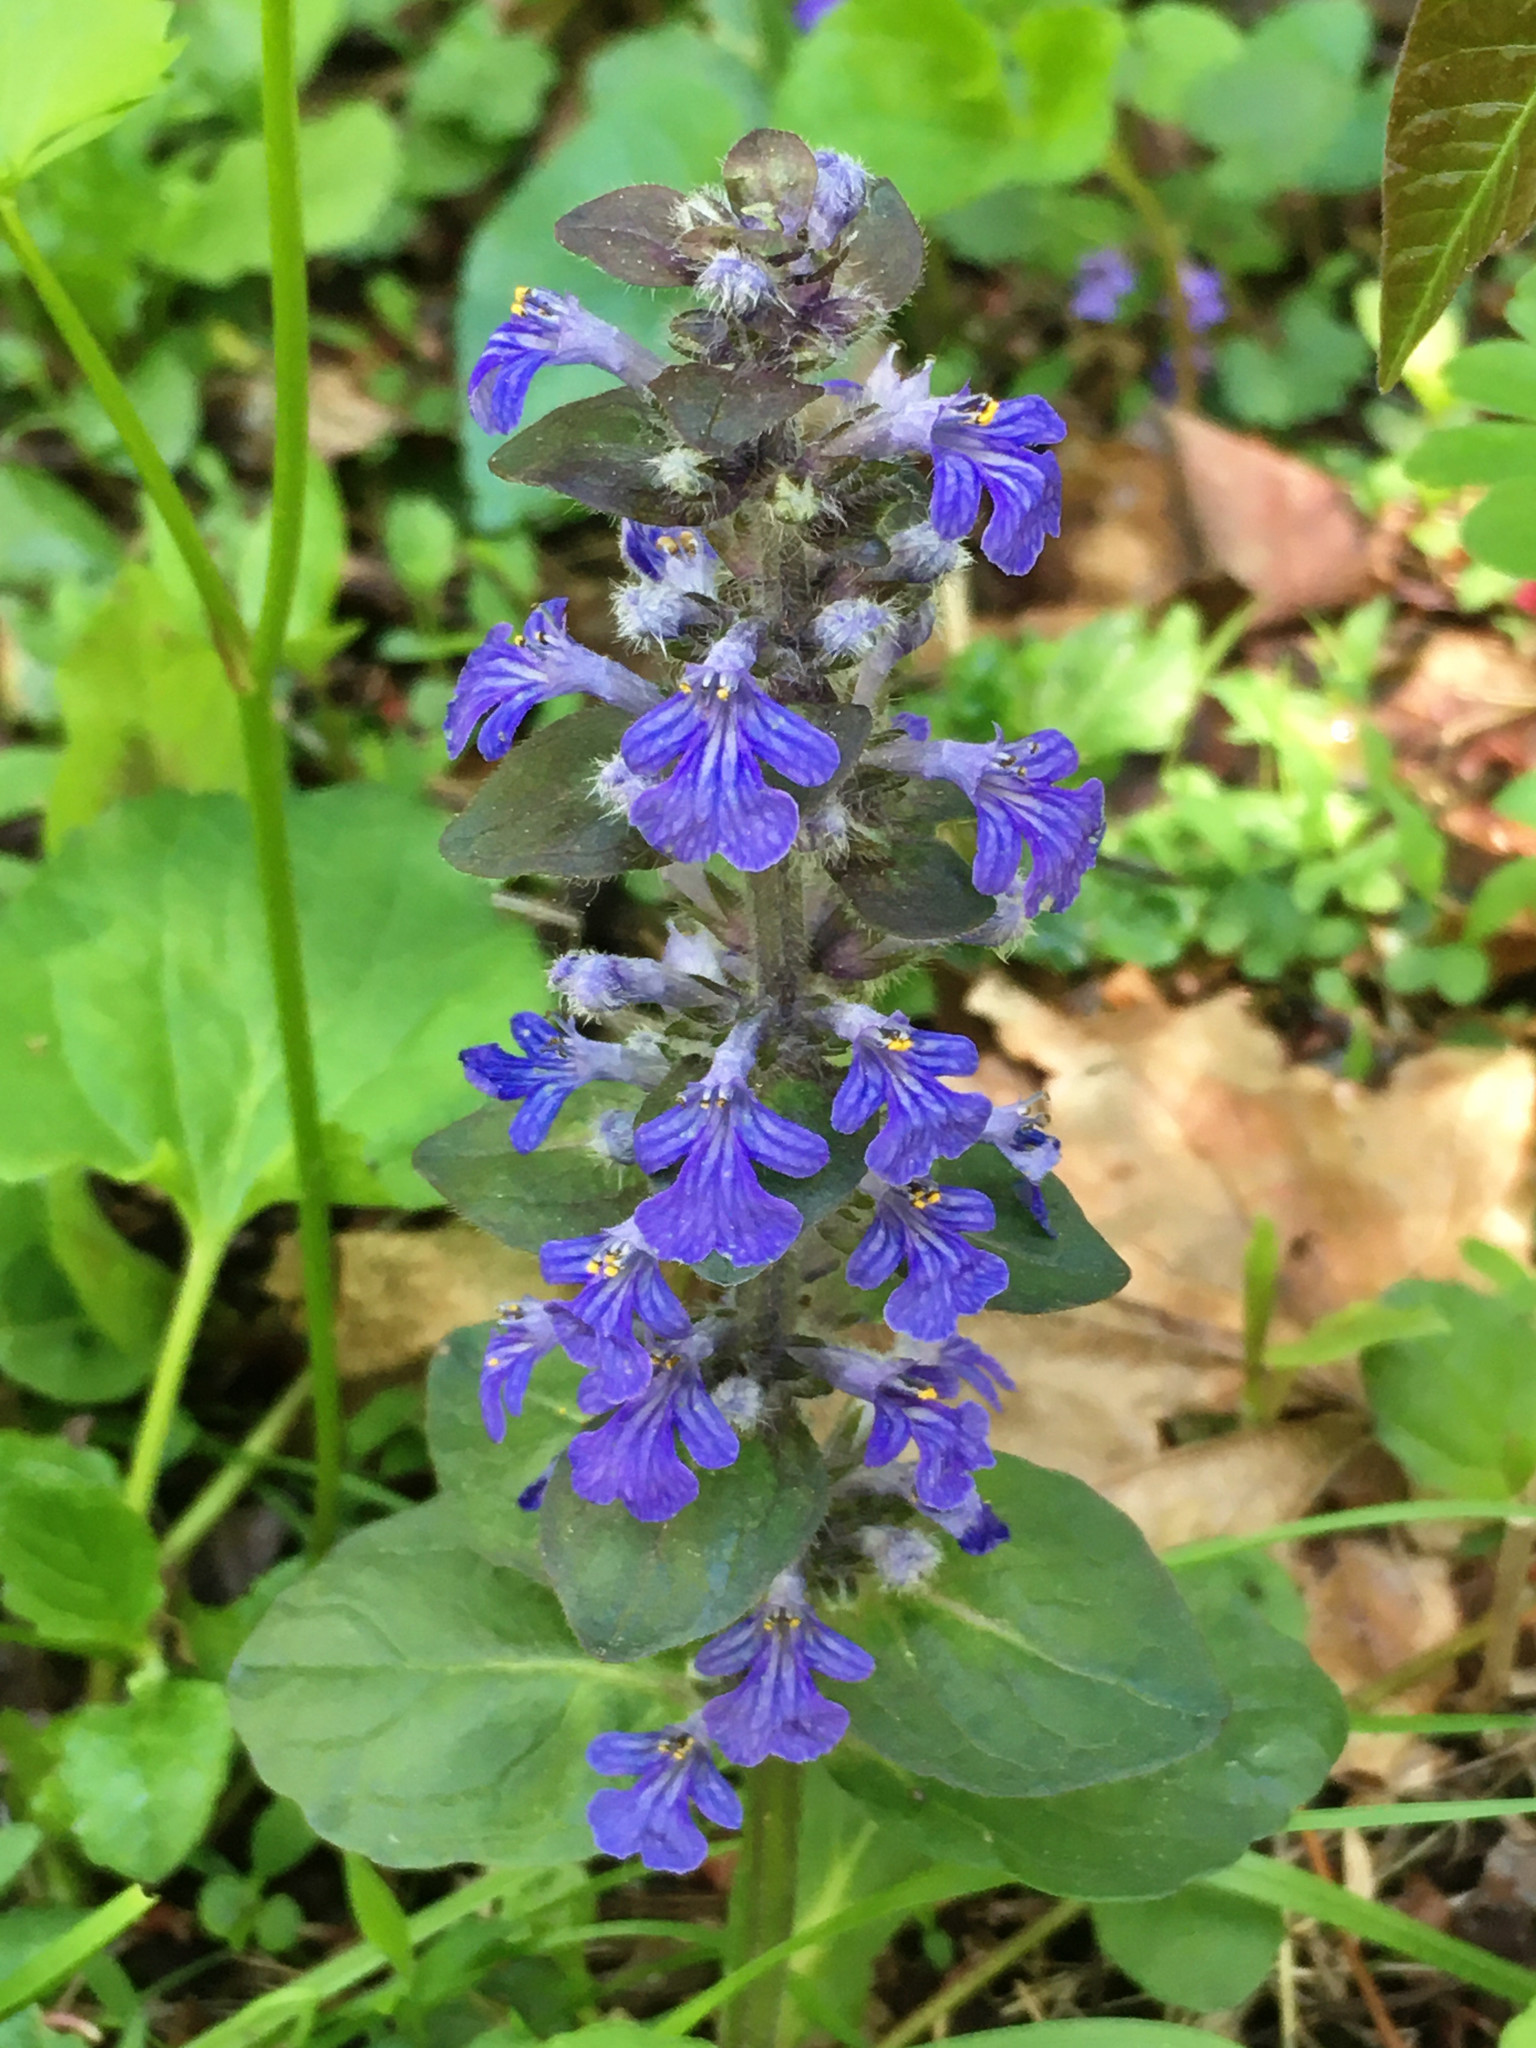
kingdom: Plantae
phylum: Tracheophyta
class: Magnoliopsida
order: Lamiales
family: Lamiaceae
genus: Ajuga
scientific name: Ajuga reptans
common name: Bugle
